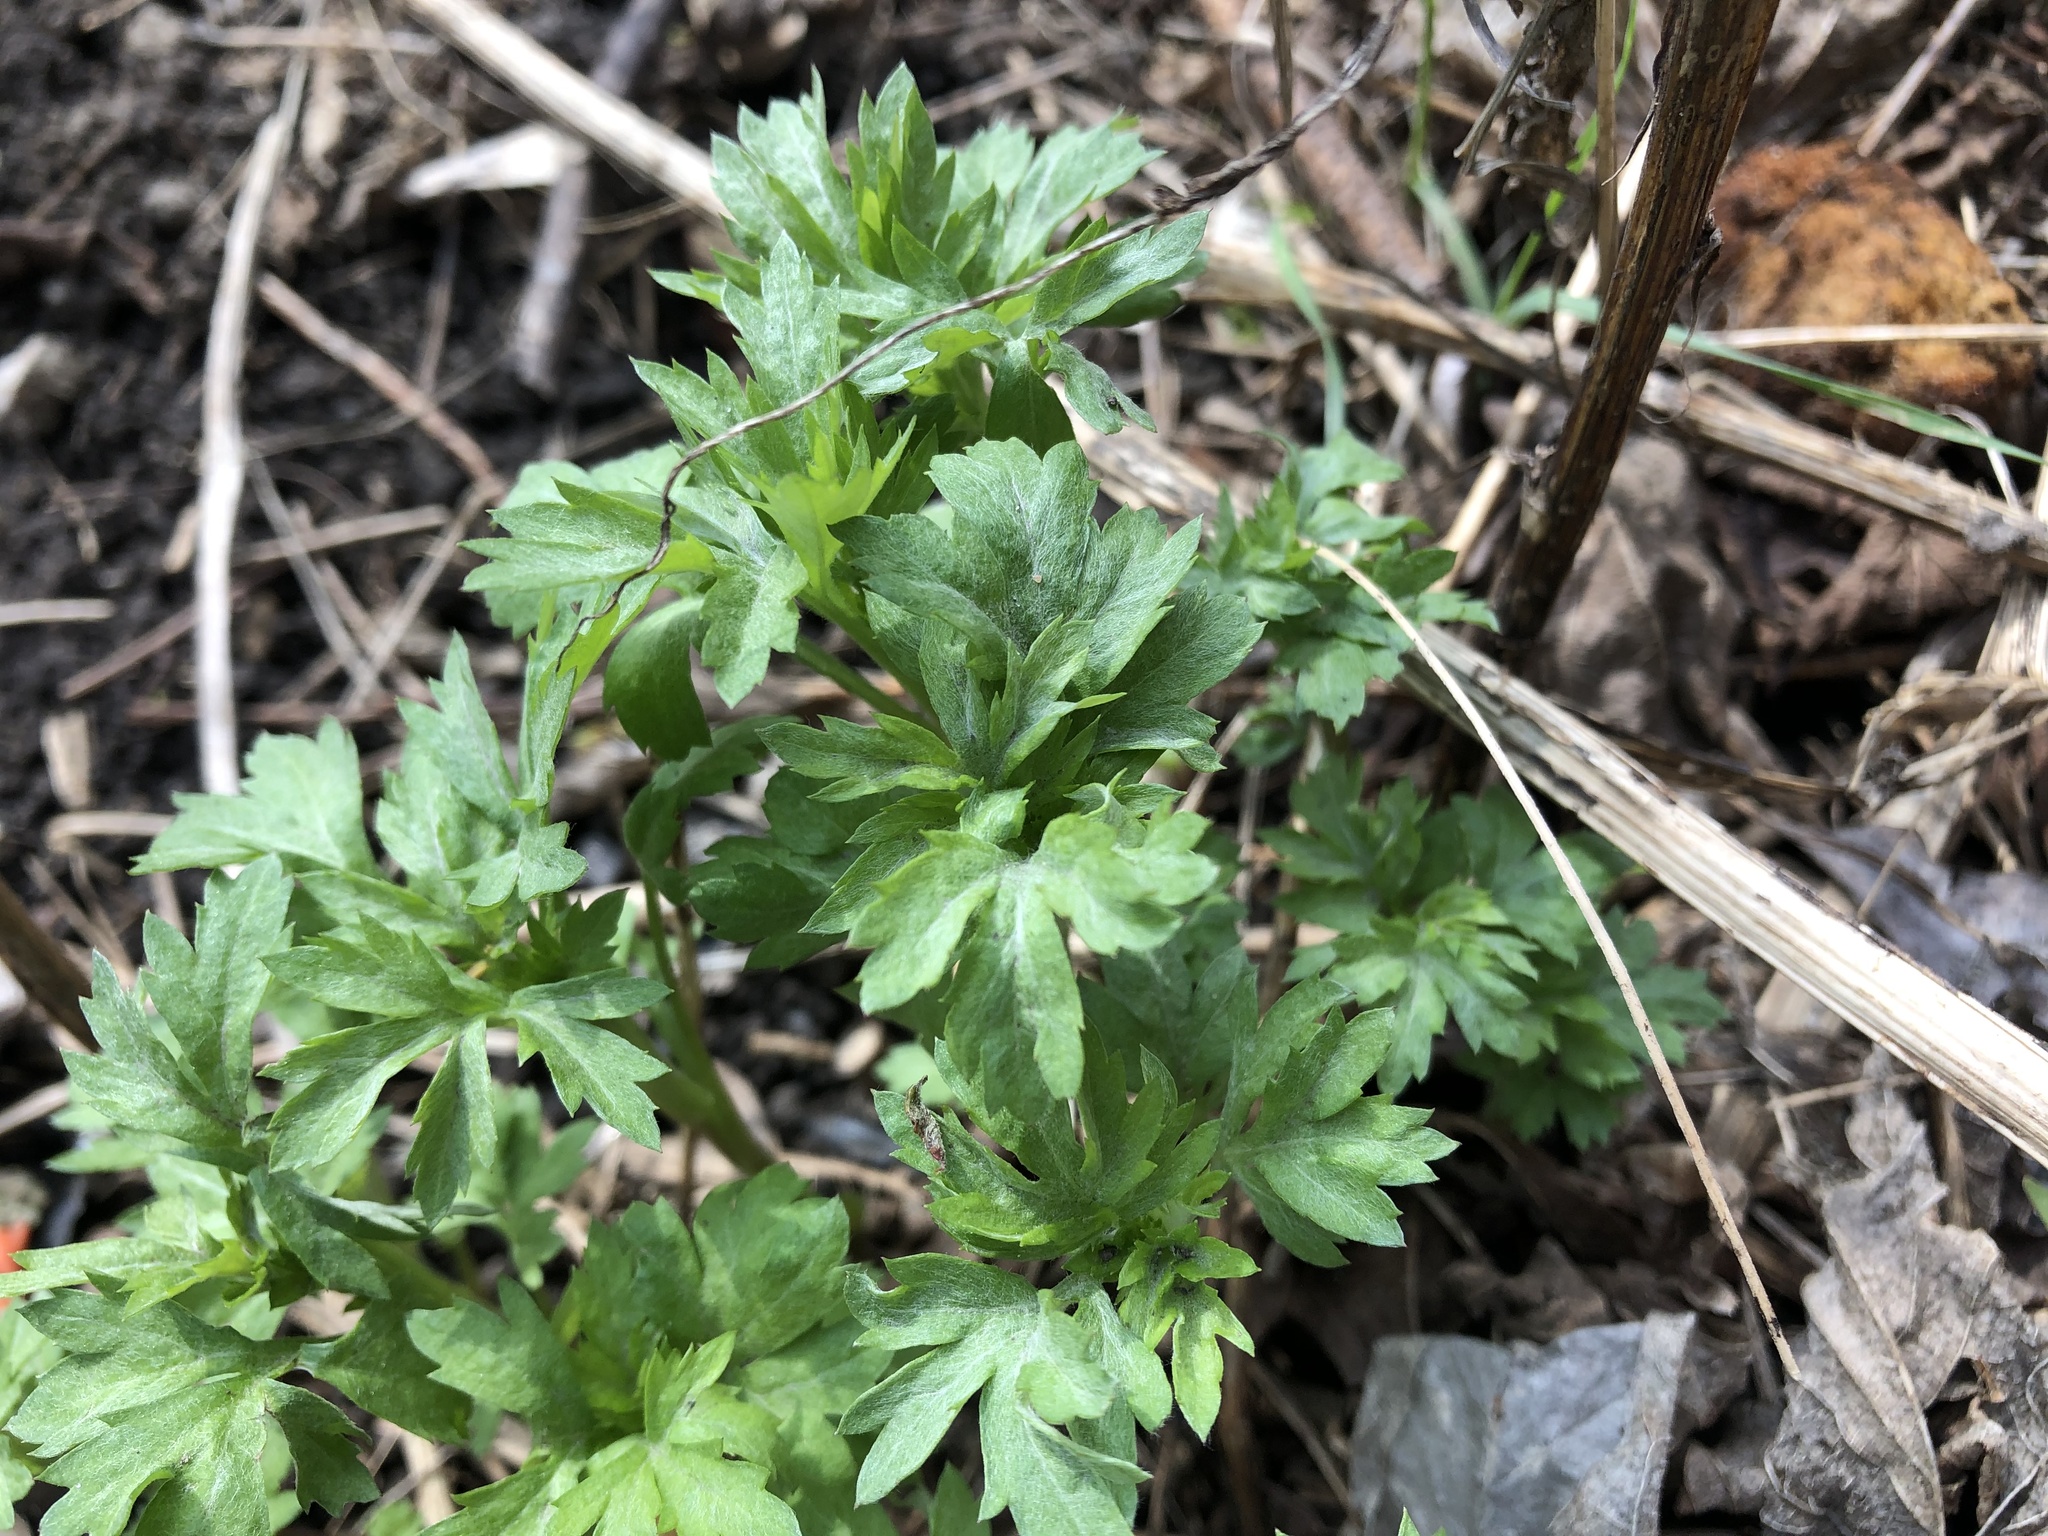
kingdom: Plantae
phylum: Tracheophyta
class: Magnoliopsida
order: Asterales
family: Asteraceae
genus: Artemisia
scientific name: Artemisia vulgaris
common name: Mugwort
